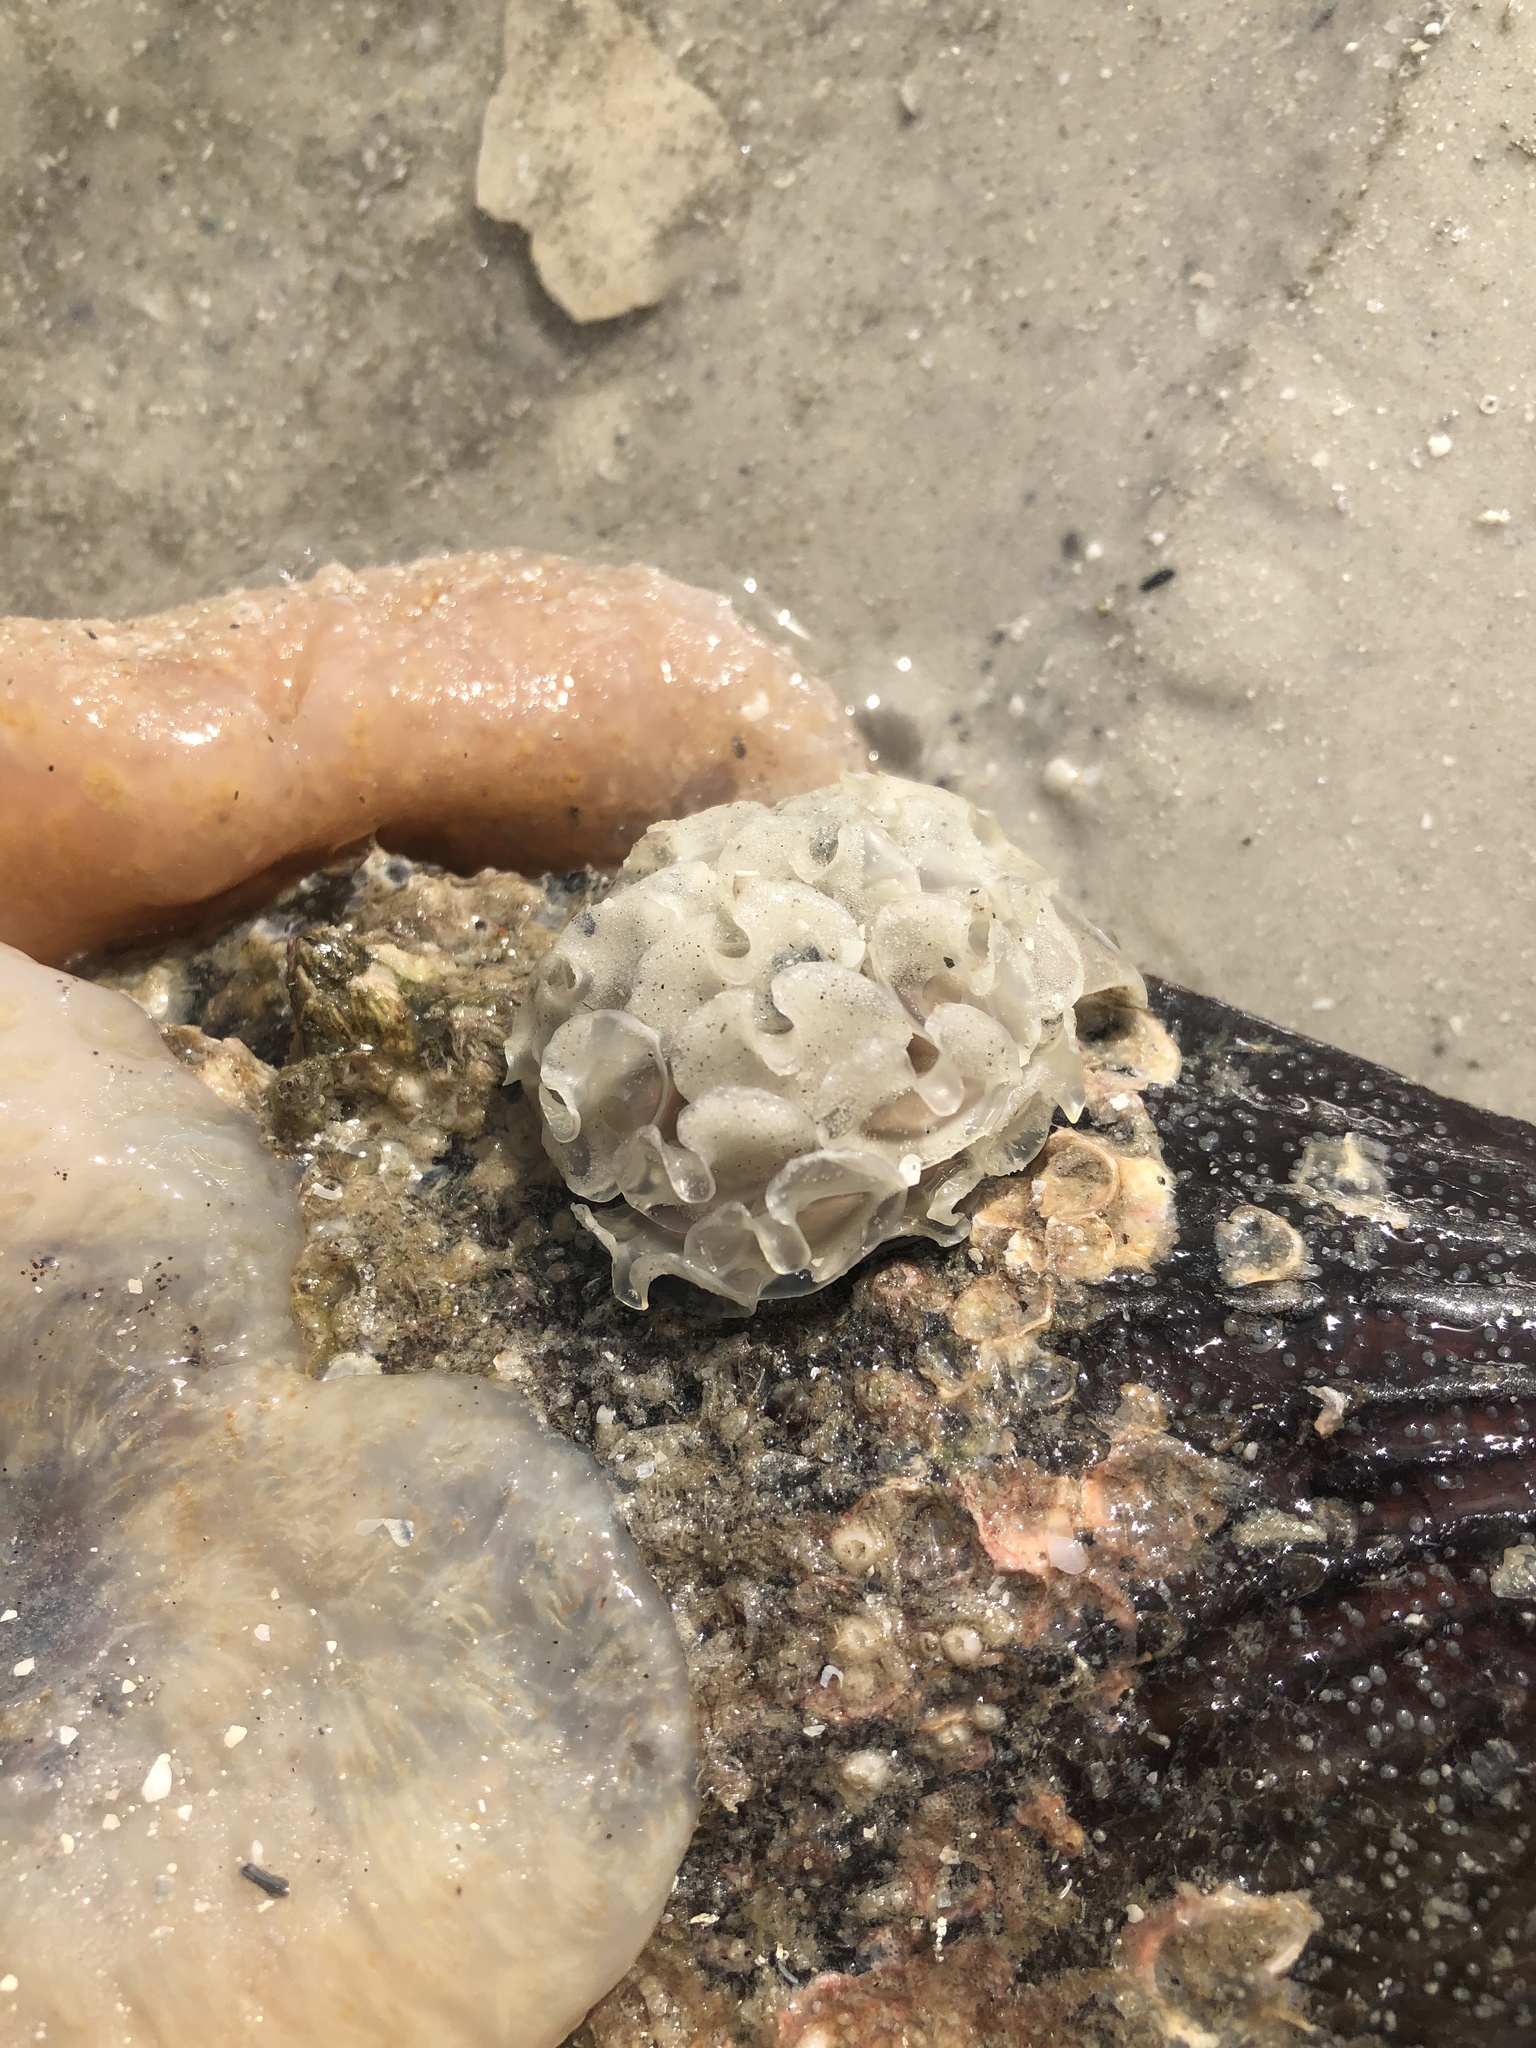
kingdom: Animalia
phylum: Mollusca
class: Gastropoda
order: Neogastropoda
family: Fasciolariidae
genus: Cinctura
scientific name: Cinctura hunteria
